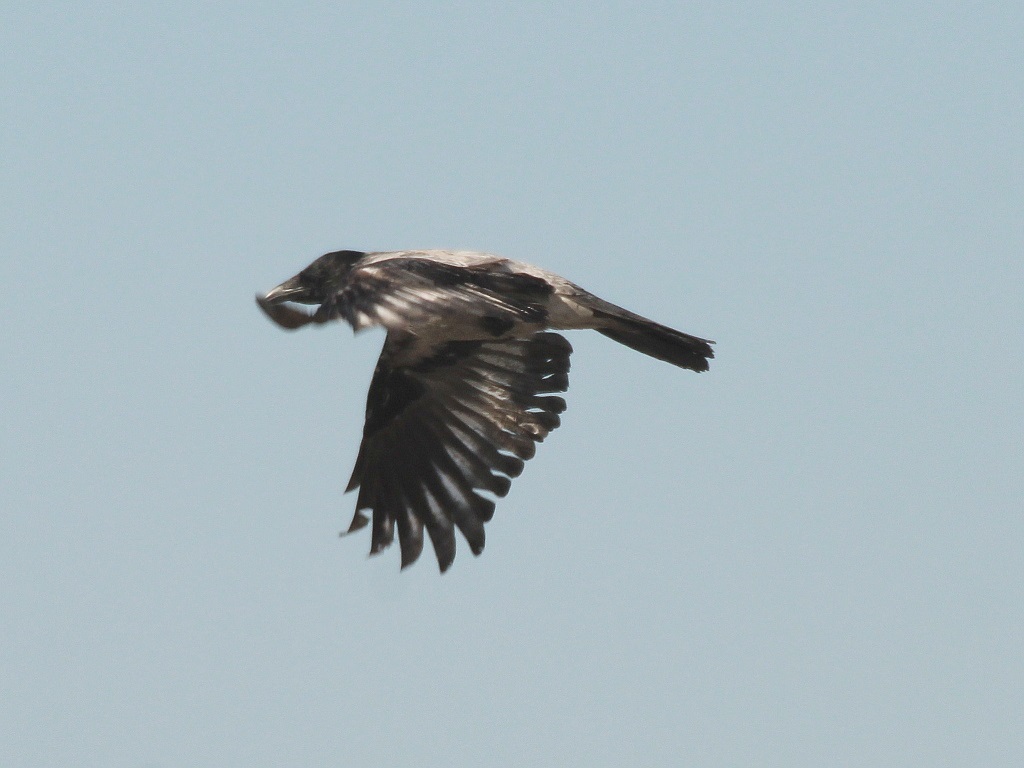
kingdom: Animalia
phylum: Chordata
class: Aves
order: Passeriformes
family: Corvidae
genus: Corvus
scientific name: Corvus cornix
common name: Hooded crow
